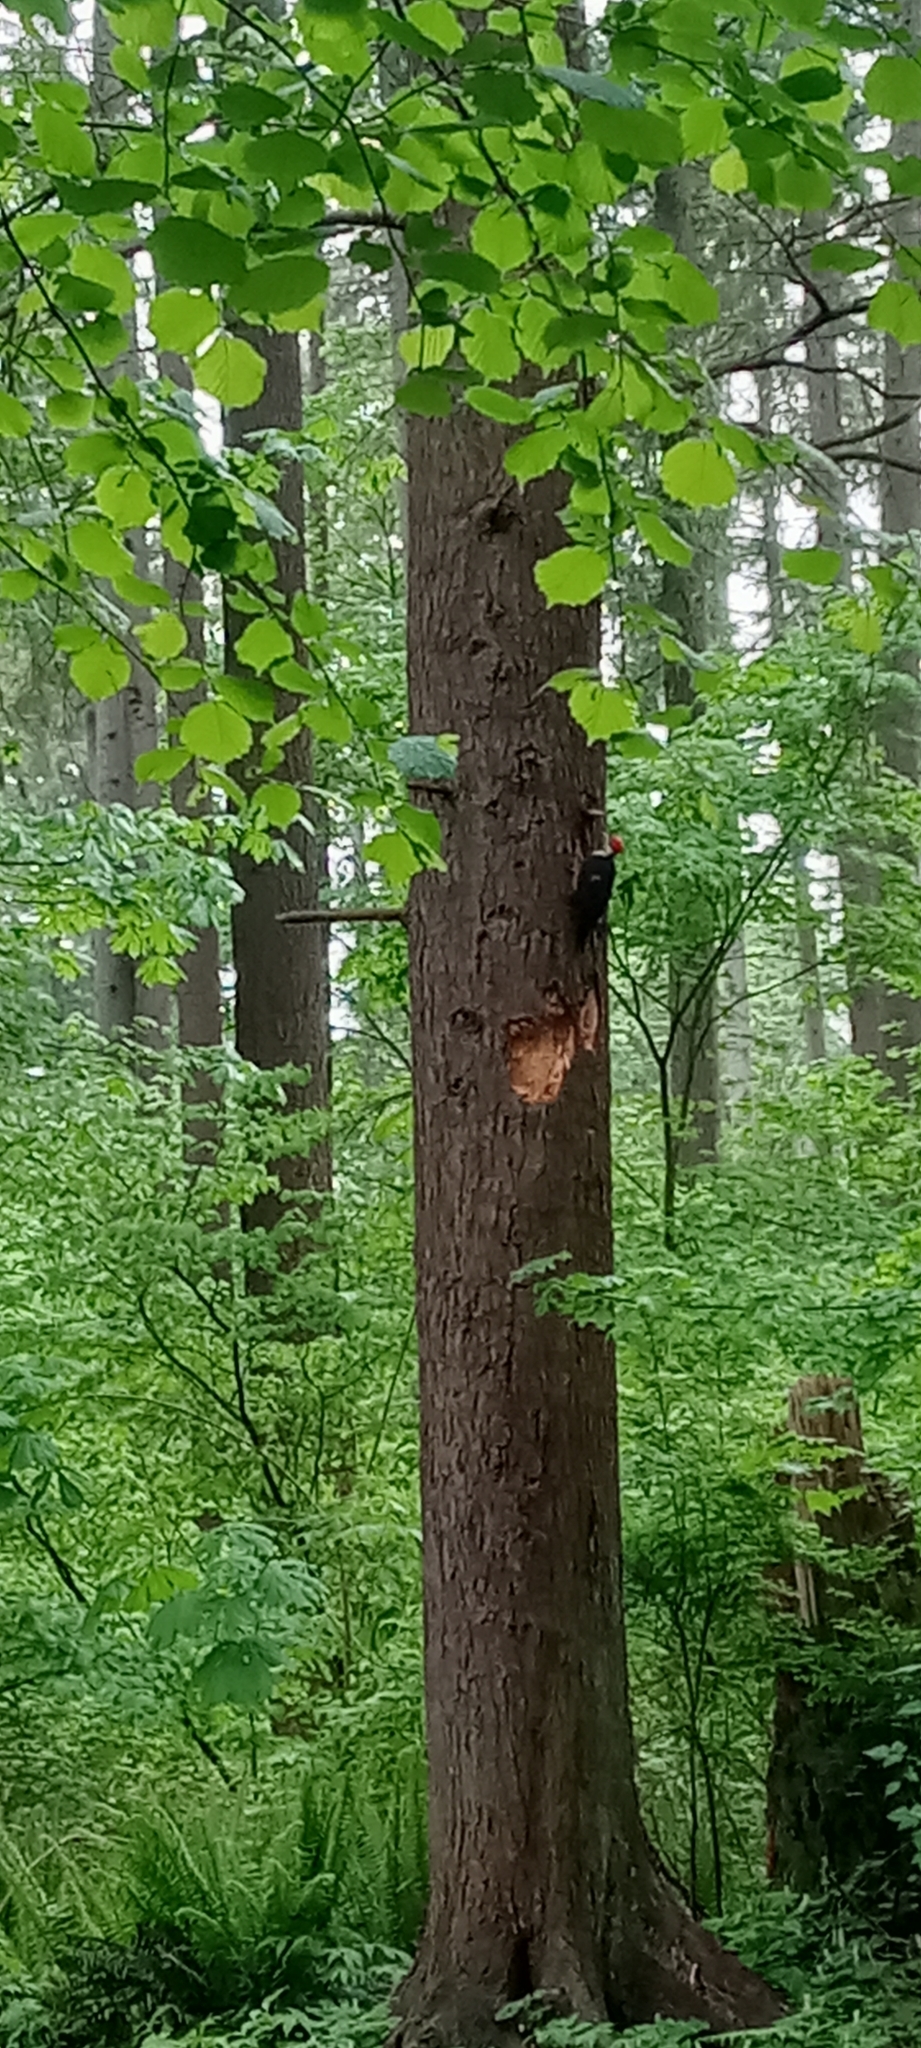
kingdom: Animalia
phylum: Chordata
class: Aves
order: Piciformes
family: Picidae
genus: Dryocopus
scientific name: Dryocopus pileatus
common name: Pileated woodpecker
